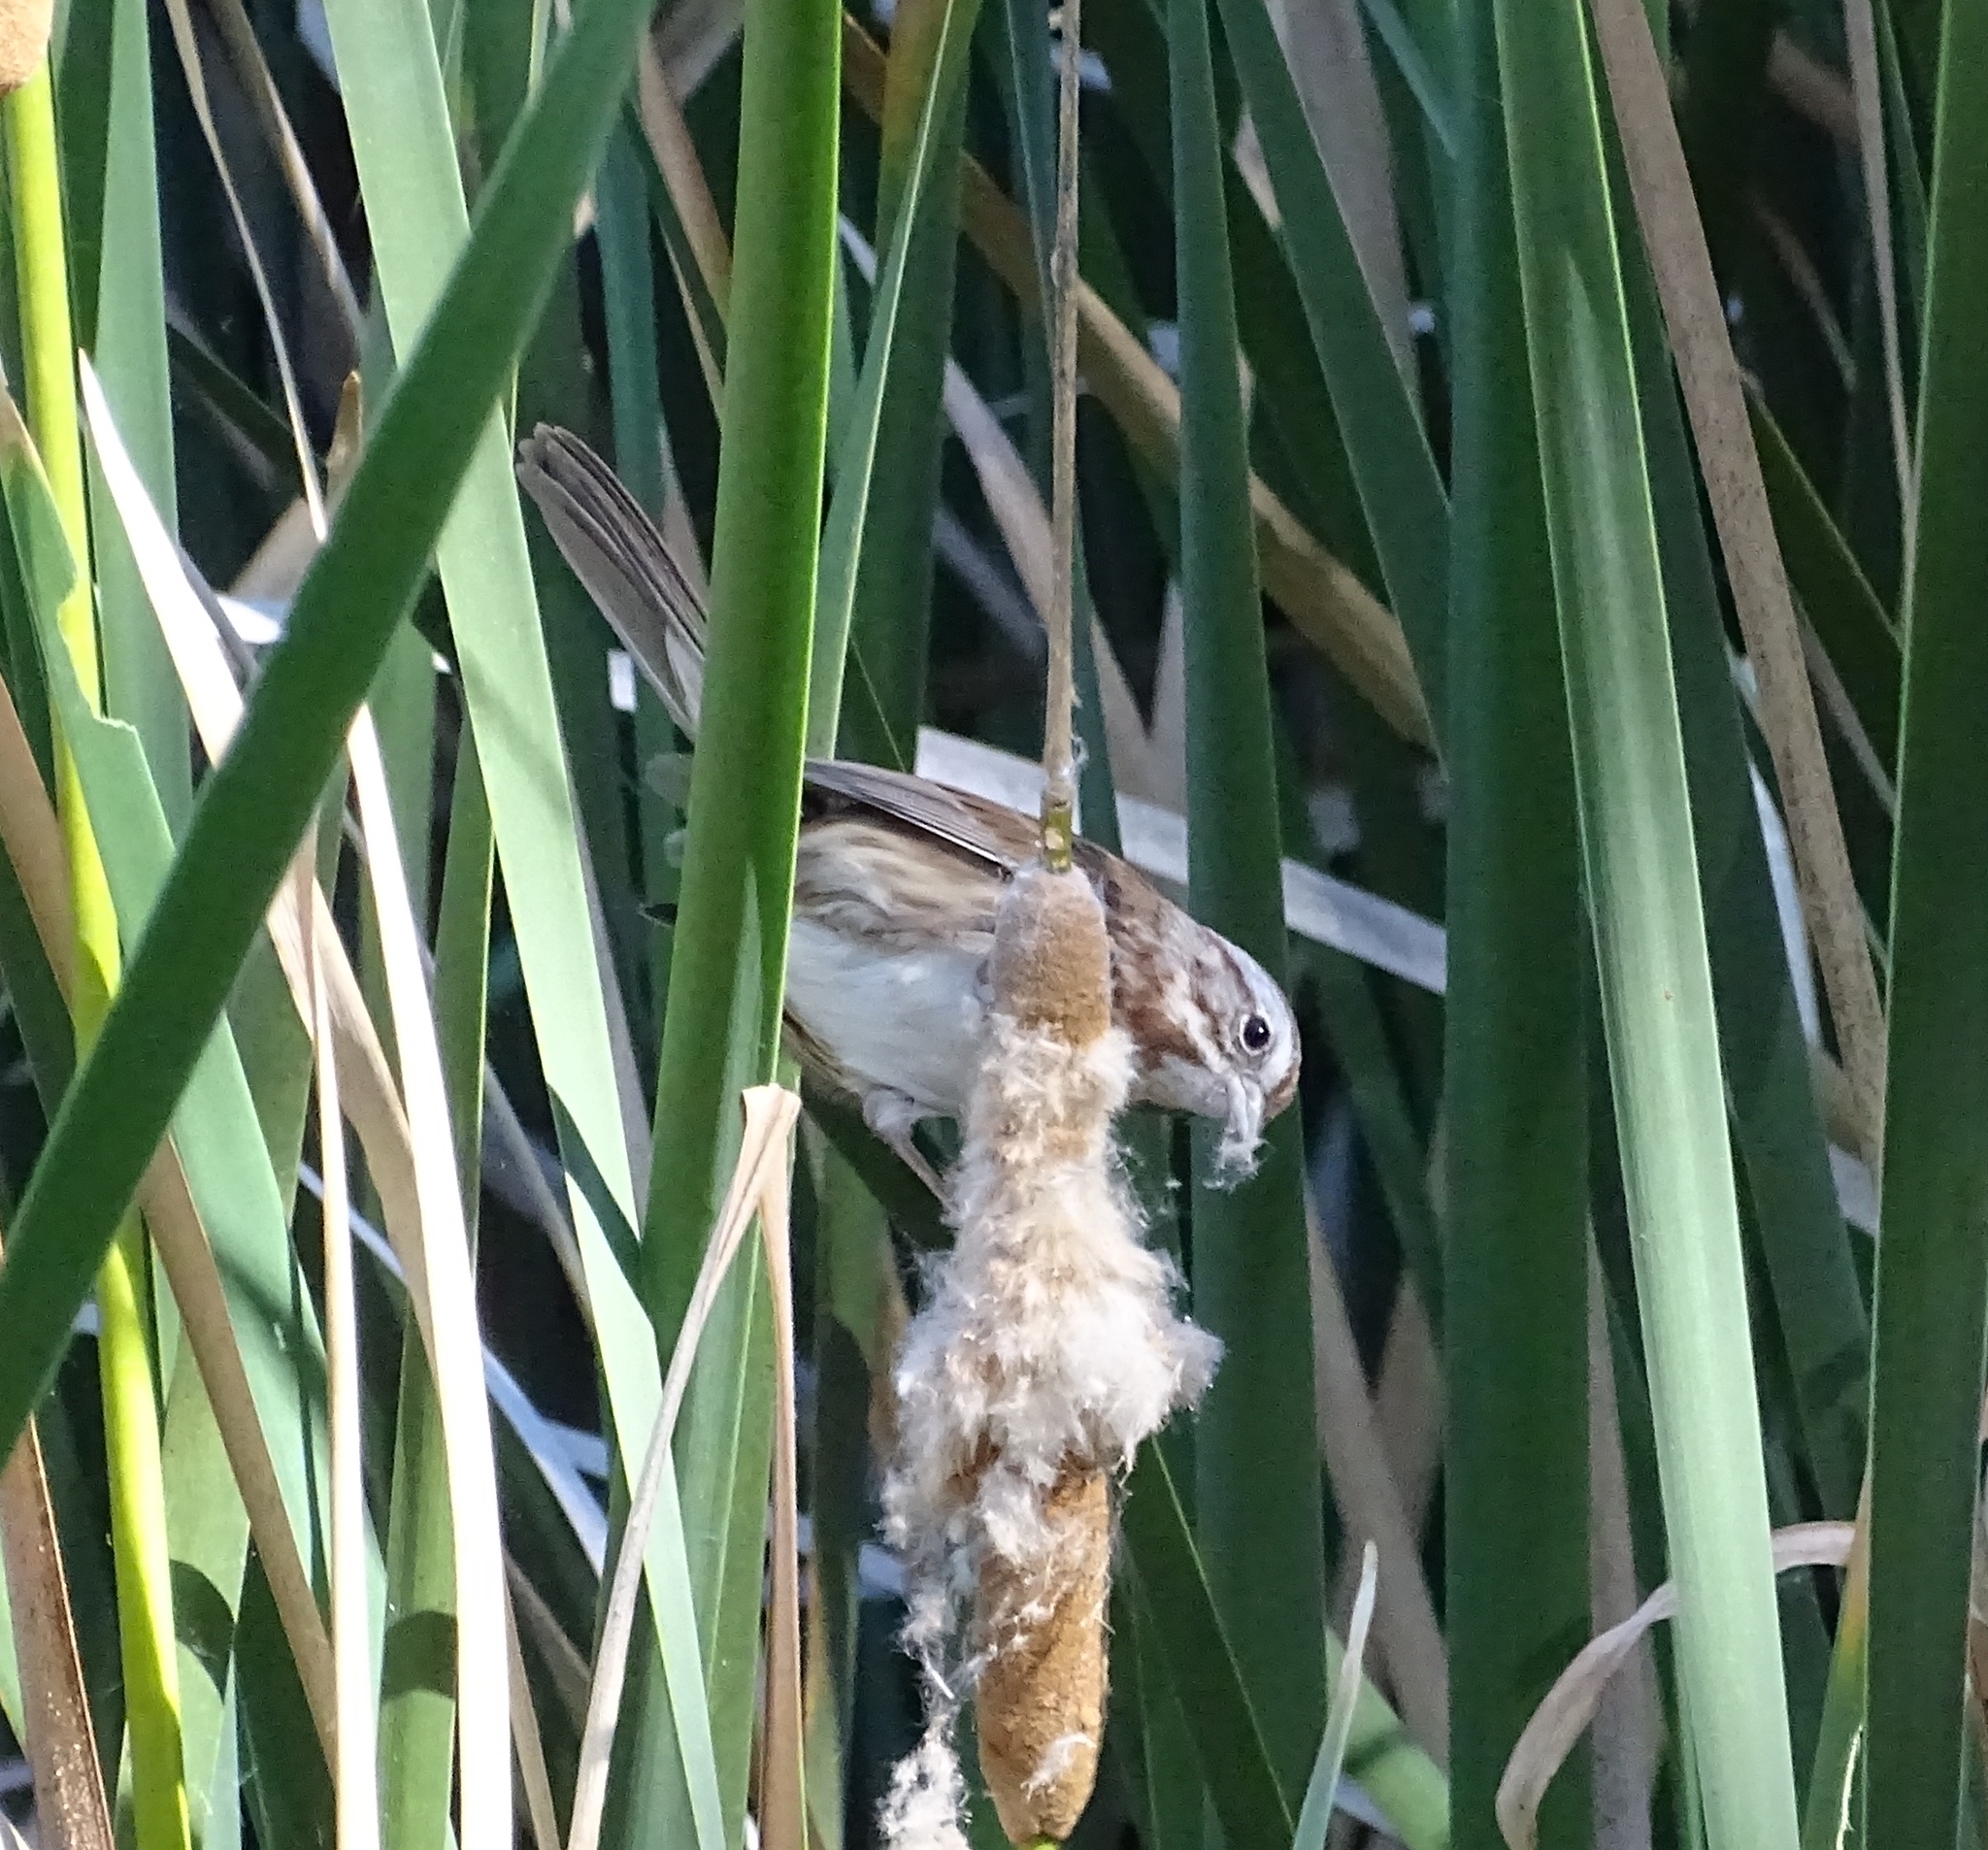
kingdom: Animalia
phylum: Chordata
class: Aves
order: Passeriformes
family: Passerellidae
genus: Melospiza
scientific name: Melospiza melodia
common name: Song sparrow
